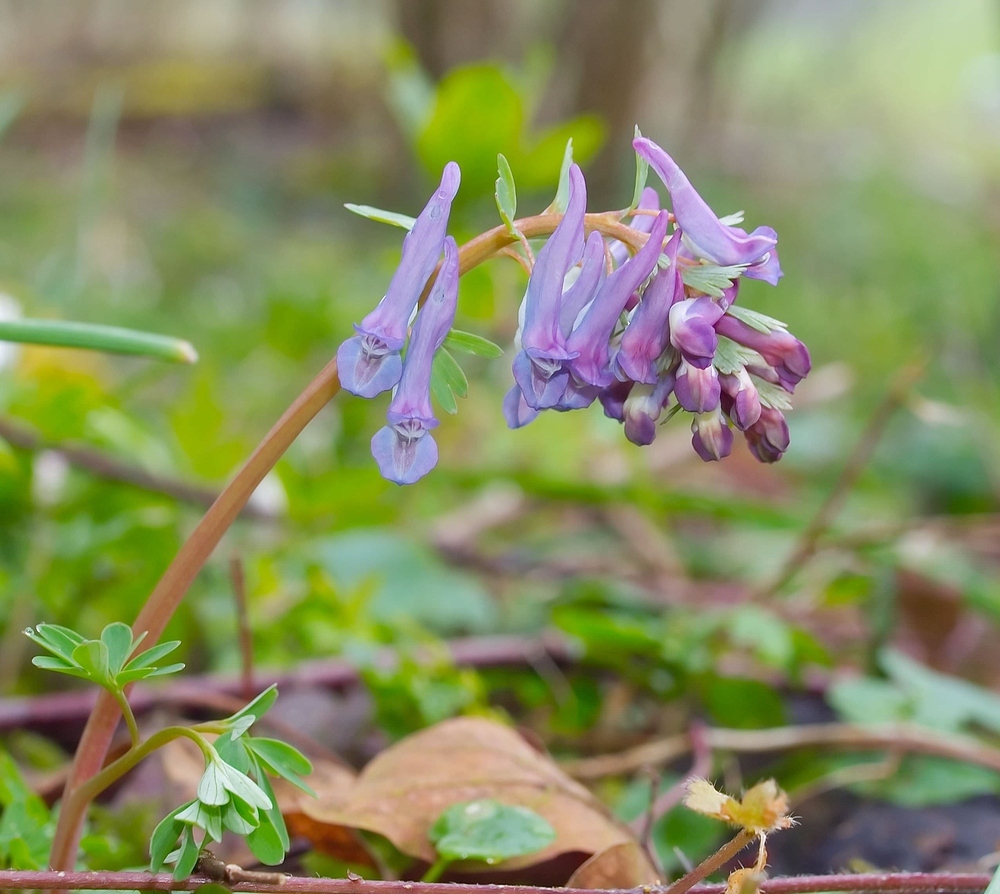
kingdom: Plantae
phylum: Tracheophyta
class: Magnoliopsida
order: Ranunculales
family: Papaveraceae
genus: Corydalis
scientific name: Corydalis solida
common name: Bird-in-a-bush
